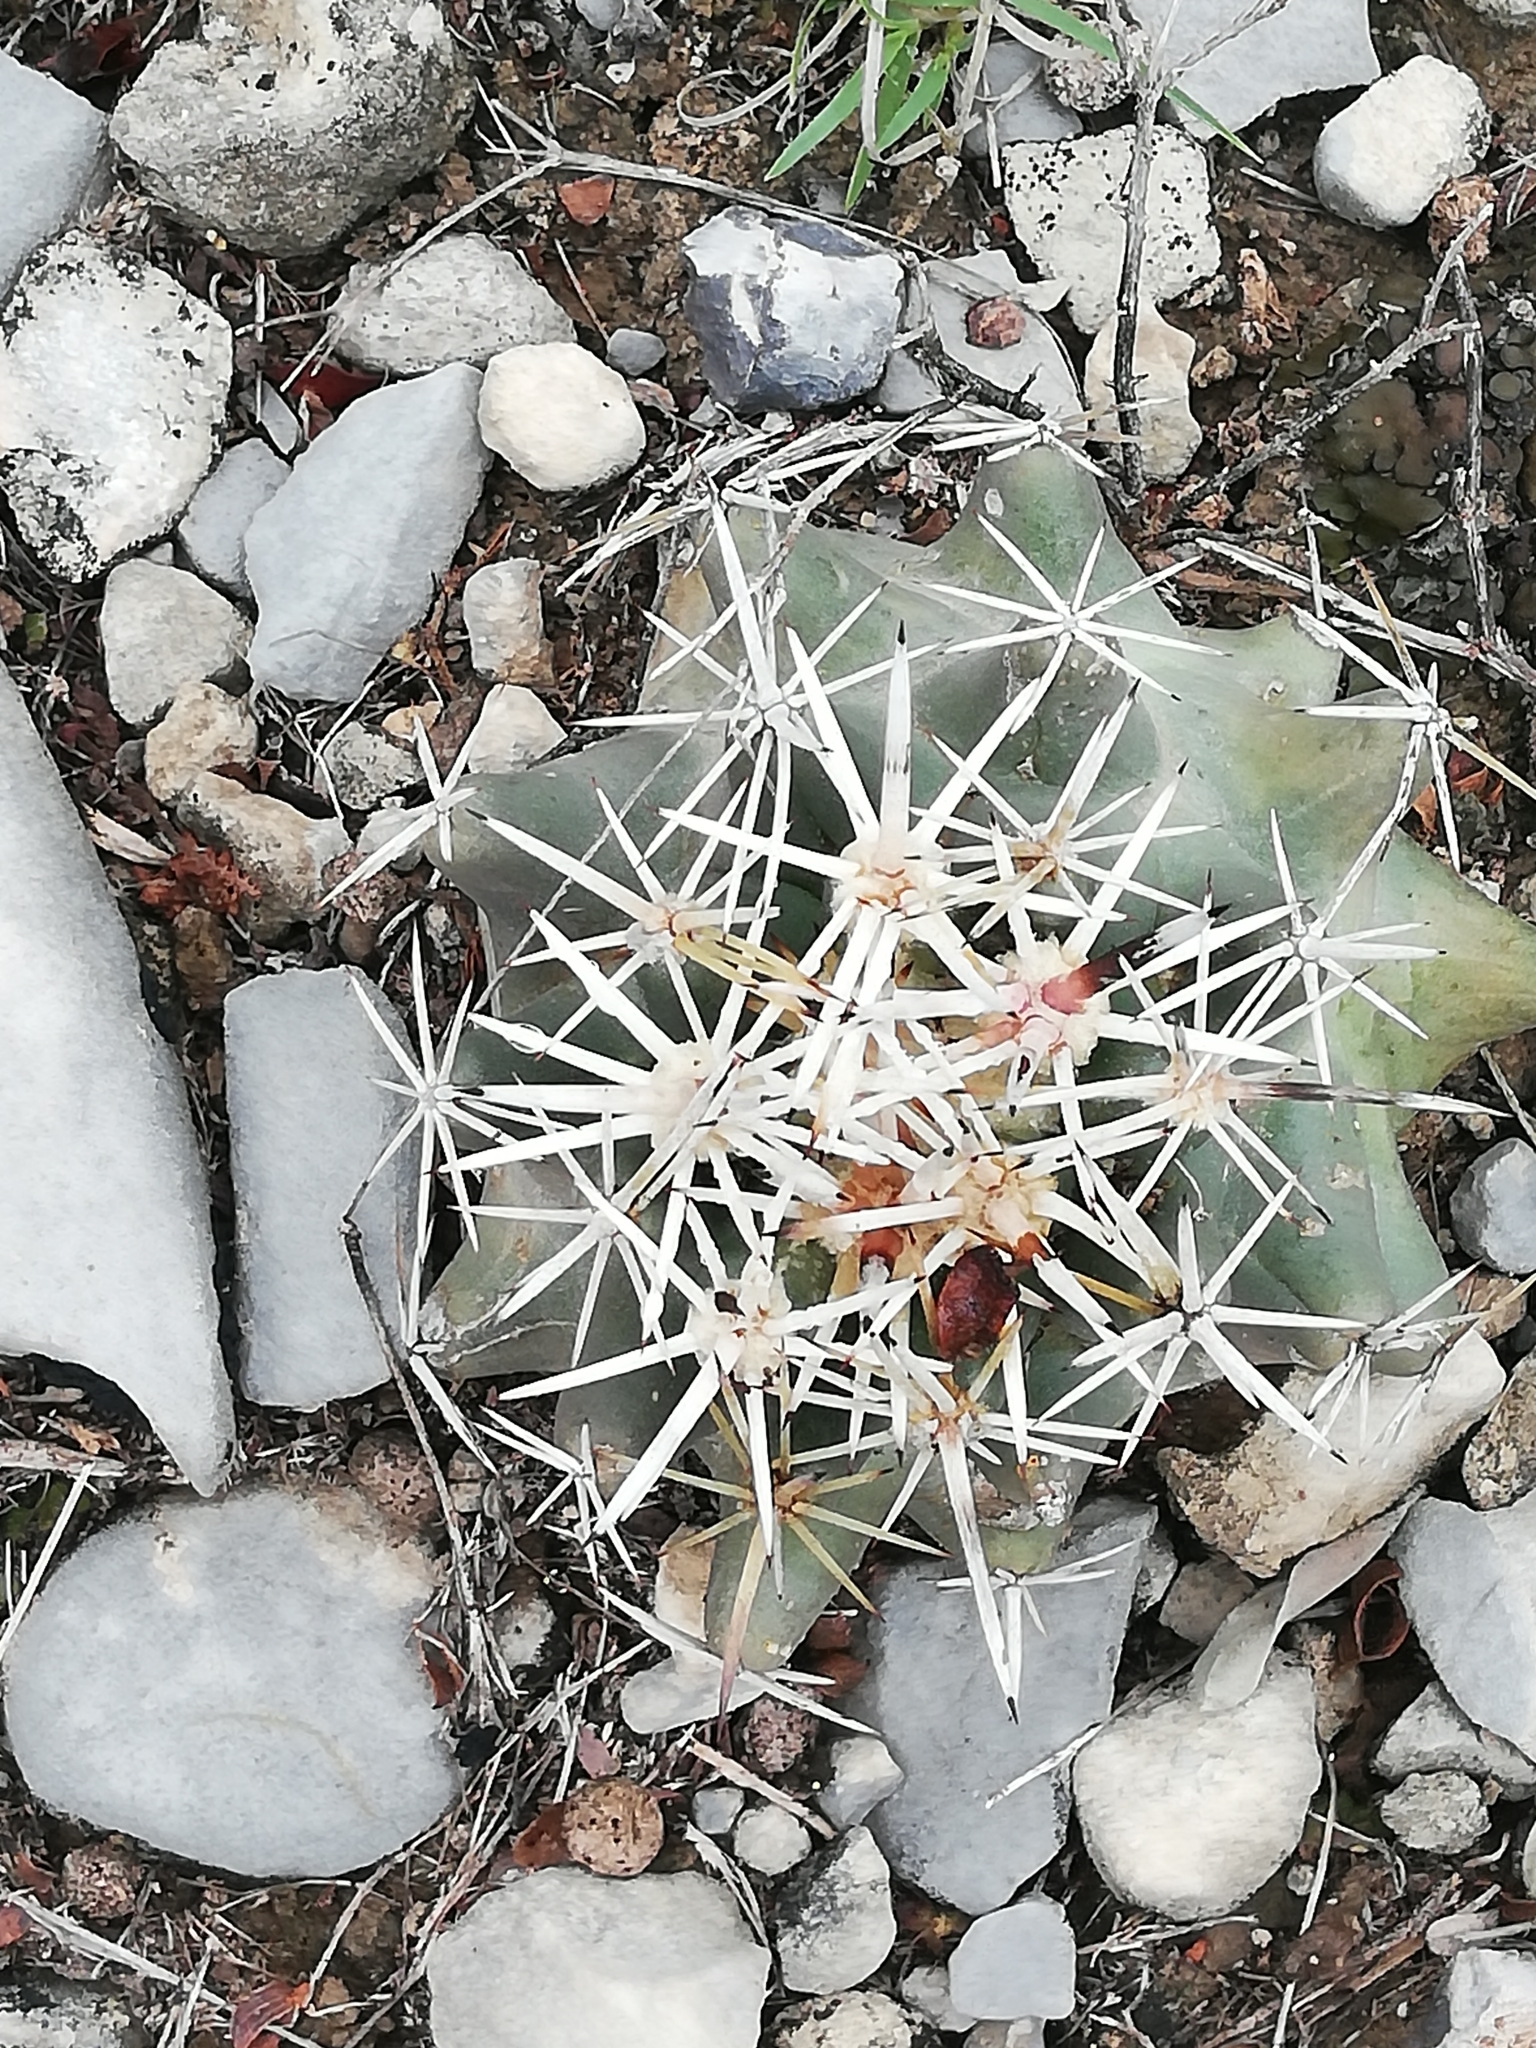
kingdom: Plantae
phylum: Tracheophyta
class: Magnoliopsida
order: Caryophyllales
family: Cactaceae
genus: Coryphantha
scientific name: Coryphantha salinensis
